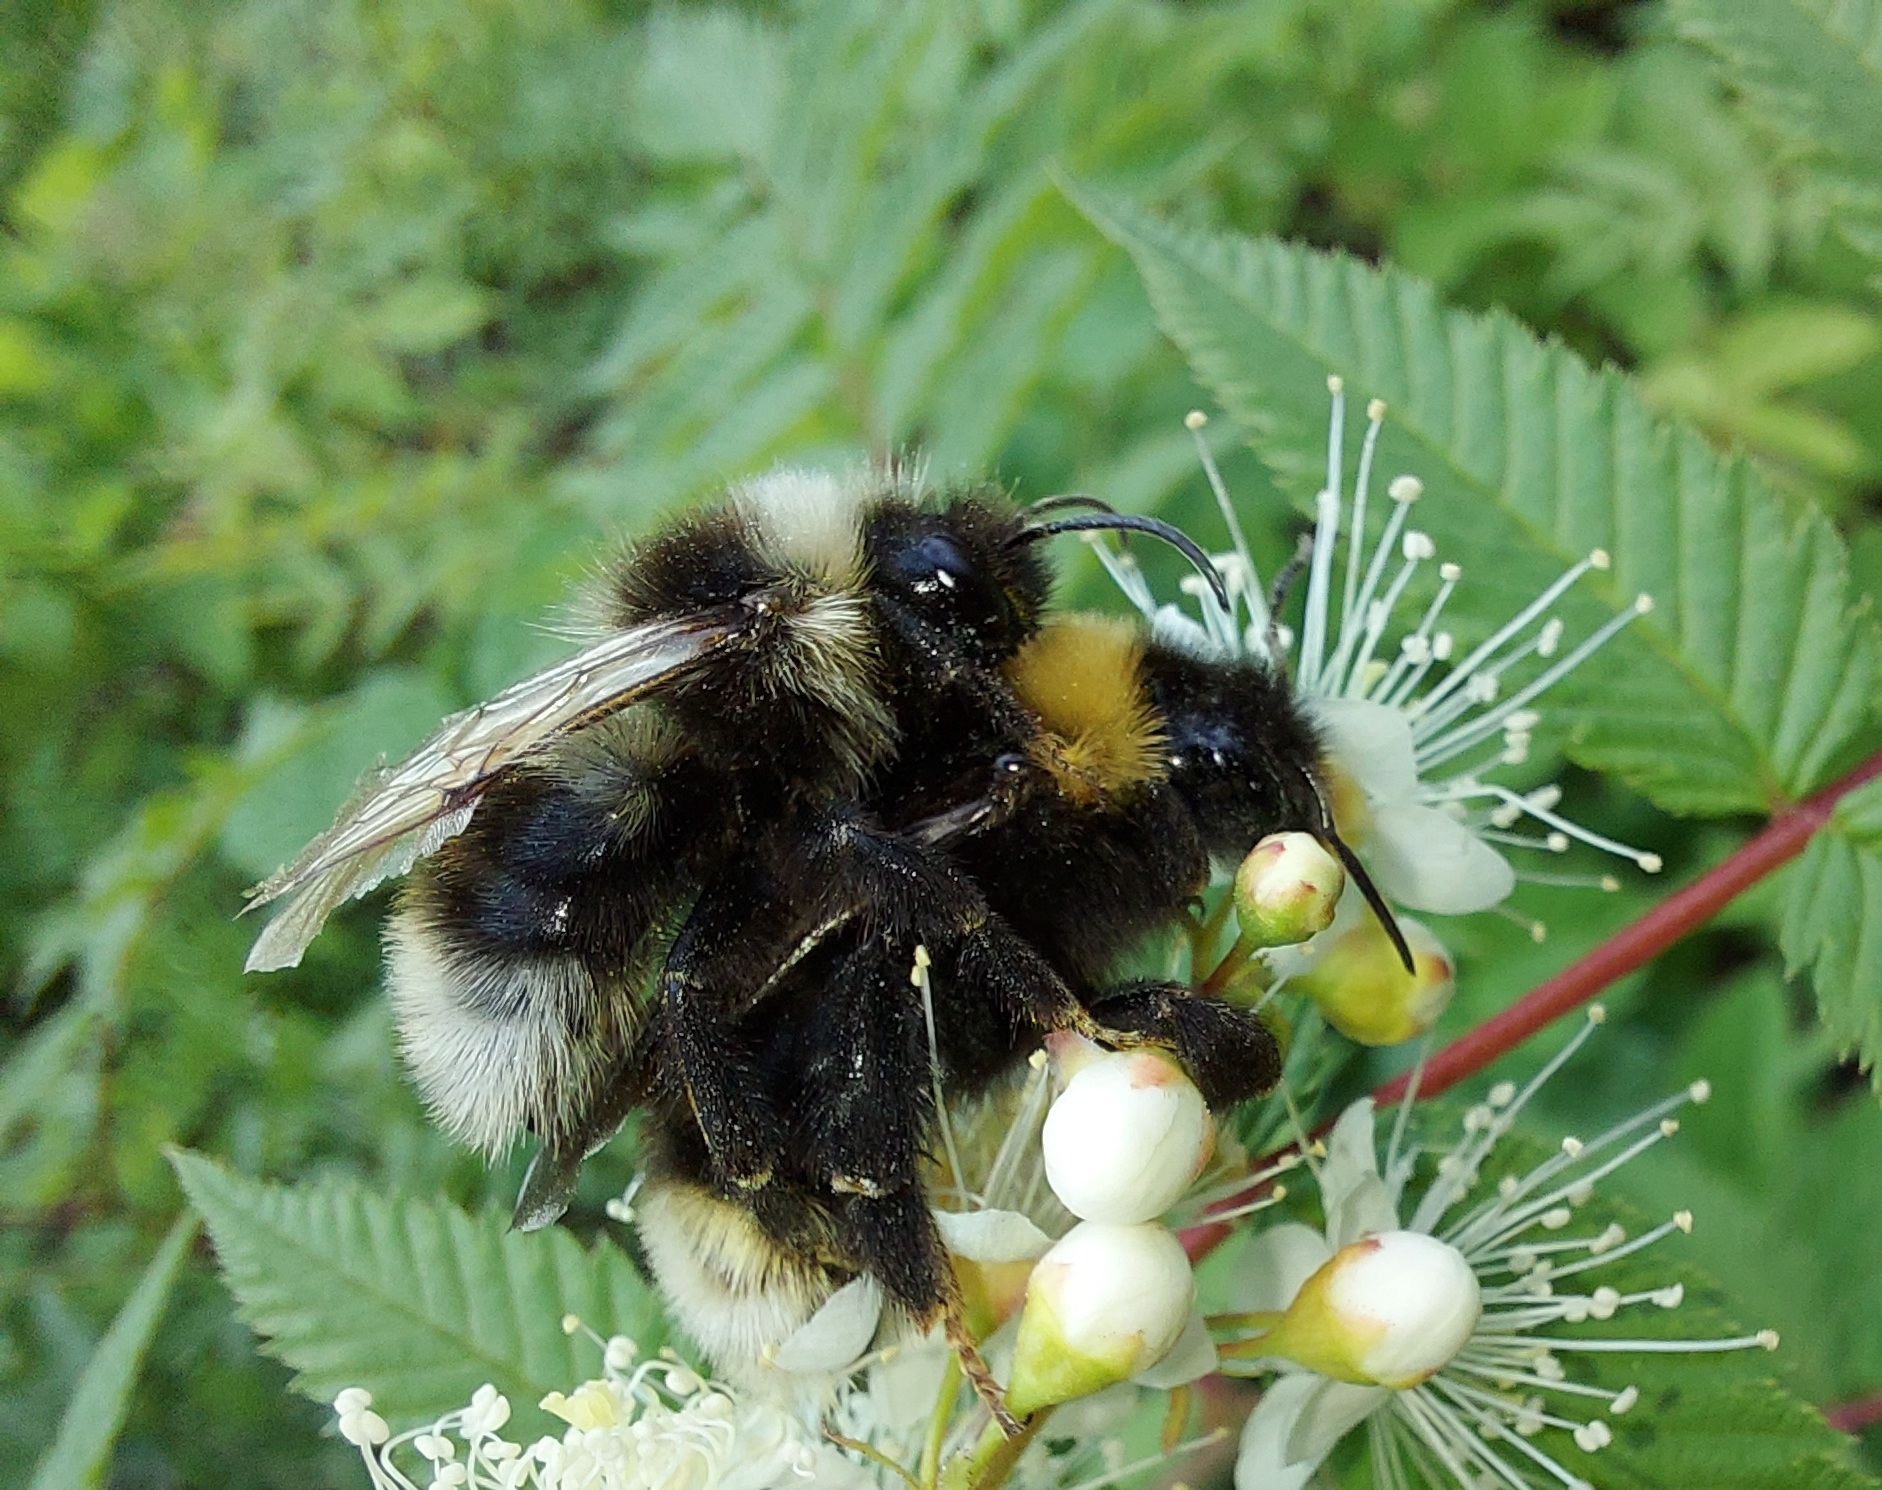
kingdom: Animalia
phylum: Arthropoda
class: Insecta
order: Hymenoptera
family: Apidae
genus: Bombus
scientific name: Bombus bohemicus
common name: Gypsy cuckoo bee
